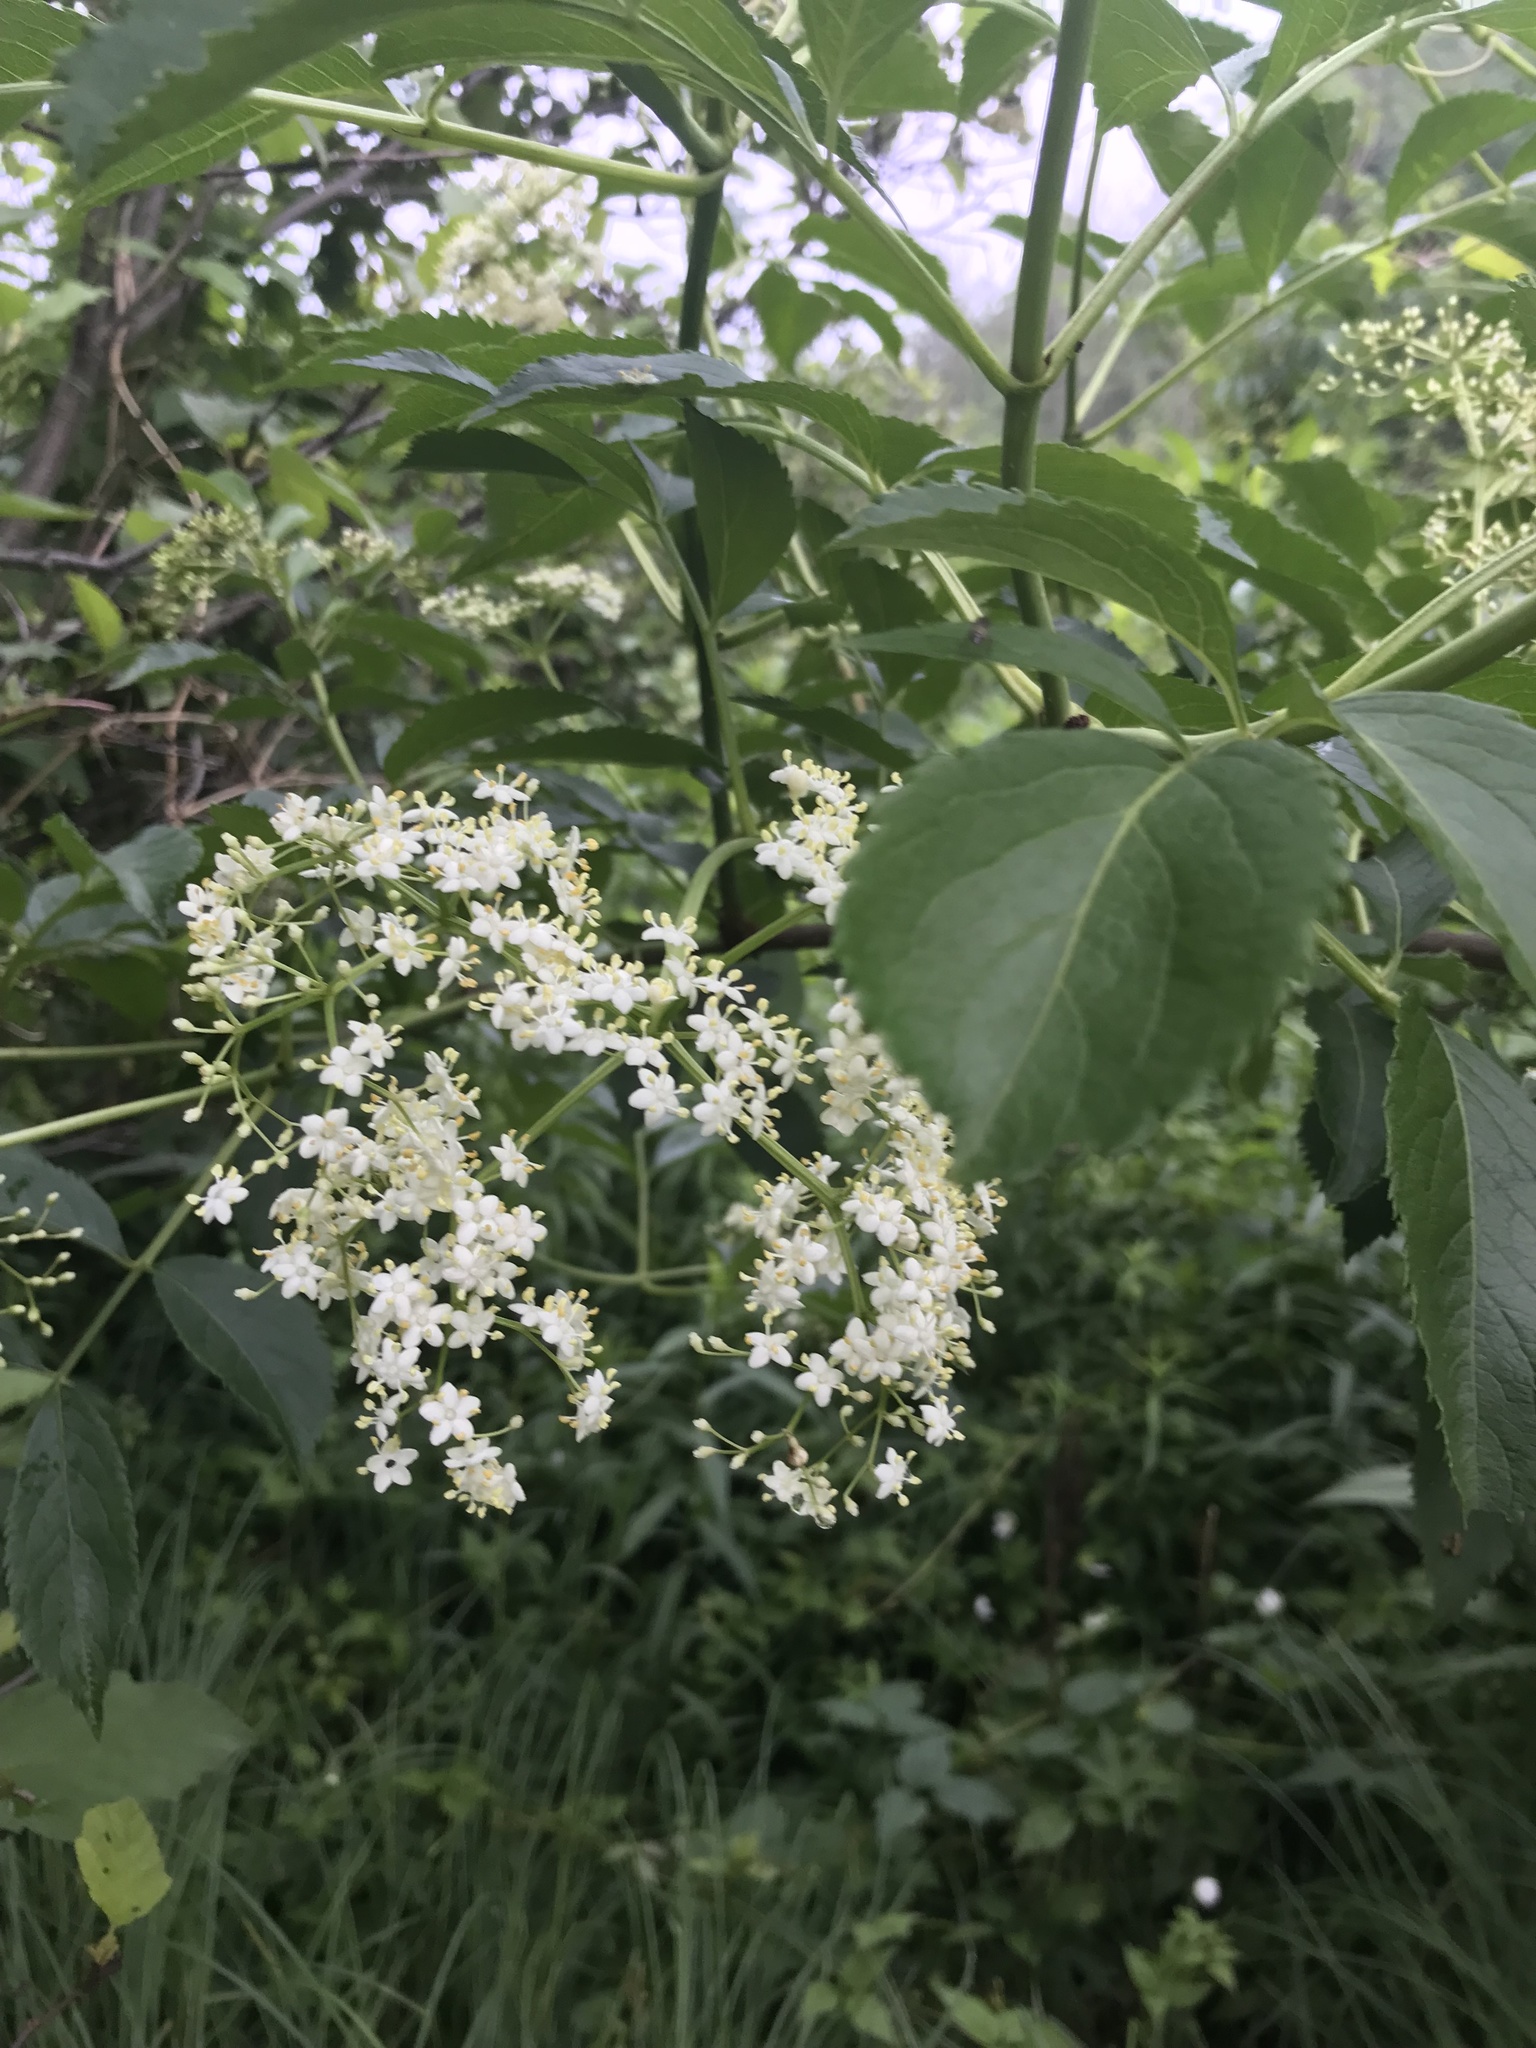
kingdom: Plantae
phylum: Tracheophyta
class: Magnoliopsida
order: Dipsacales
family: Viburnaceae
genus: Sambucus
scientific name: Sambucus canadensis
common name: American elder
